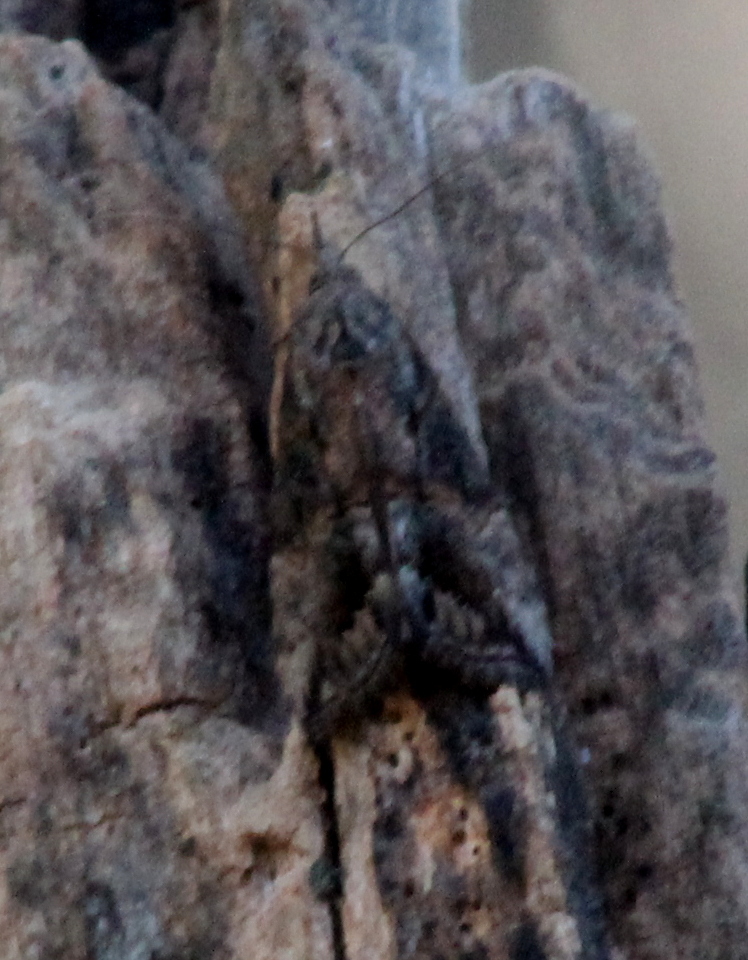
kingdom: Animalia
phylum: Arthropoda
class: Insecta
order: Lepidoptera
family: Erebidae
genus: Hypena
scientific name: Hypena scabra
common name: Green cloverworm
